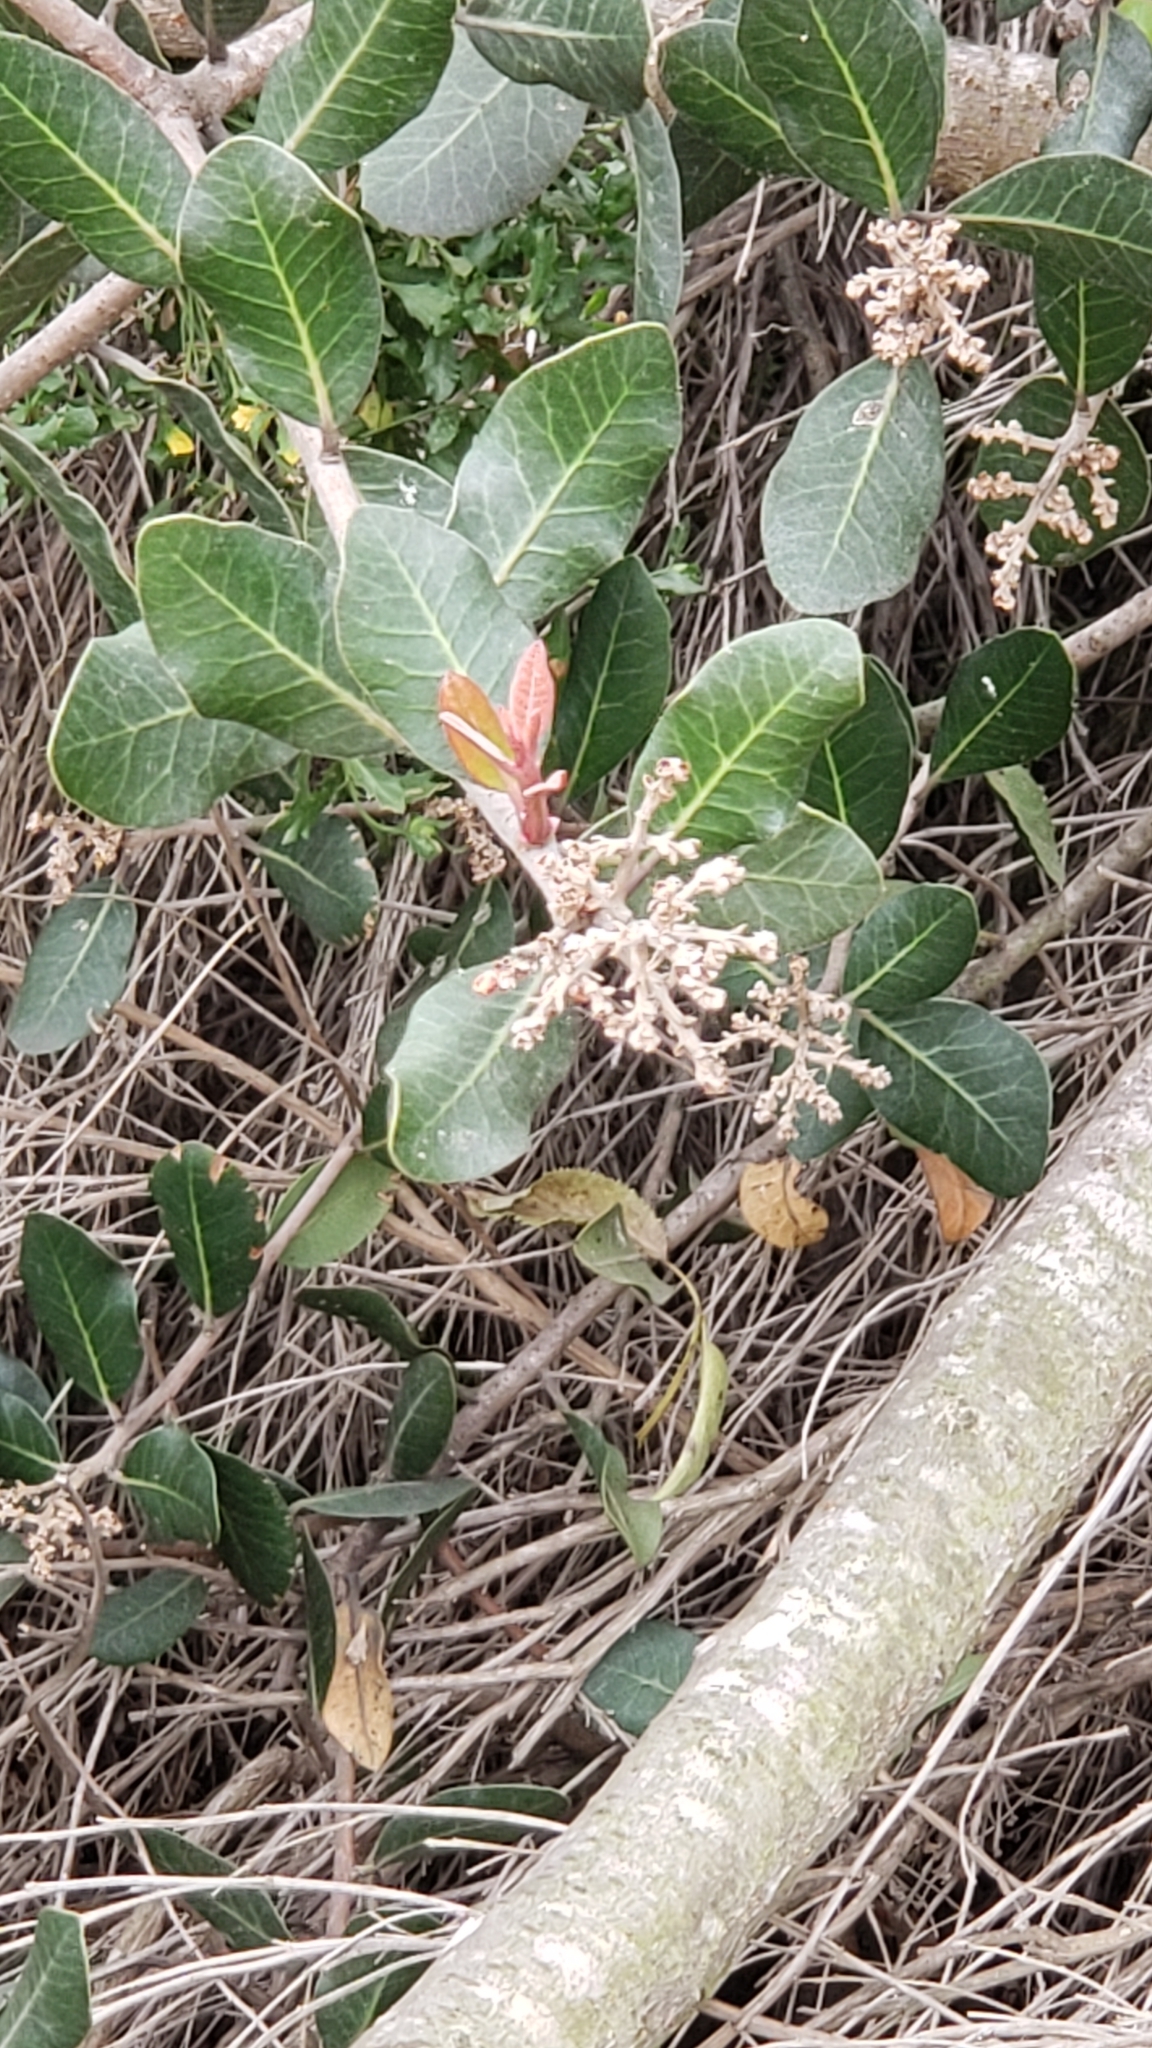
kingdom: Plantae
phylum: Tracheophyta
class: Magnoliopsida
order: Sapindales
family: Anacardiaceae
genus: Rhus
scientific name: Rhus integrifolia
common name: Lemonade sumac
